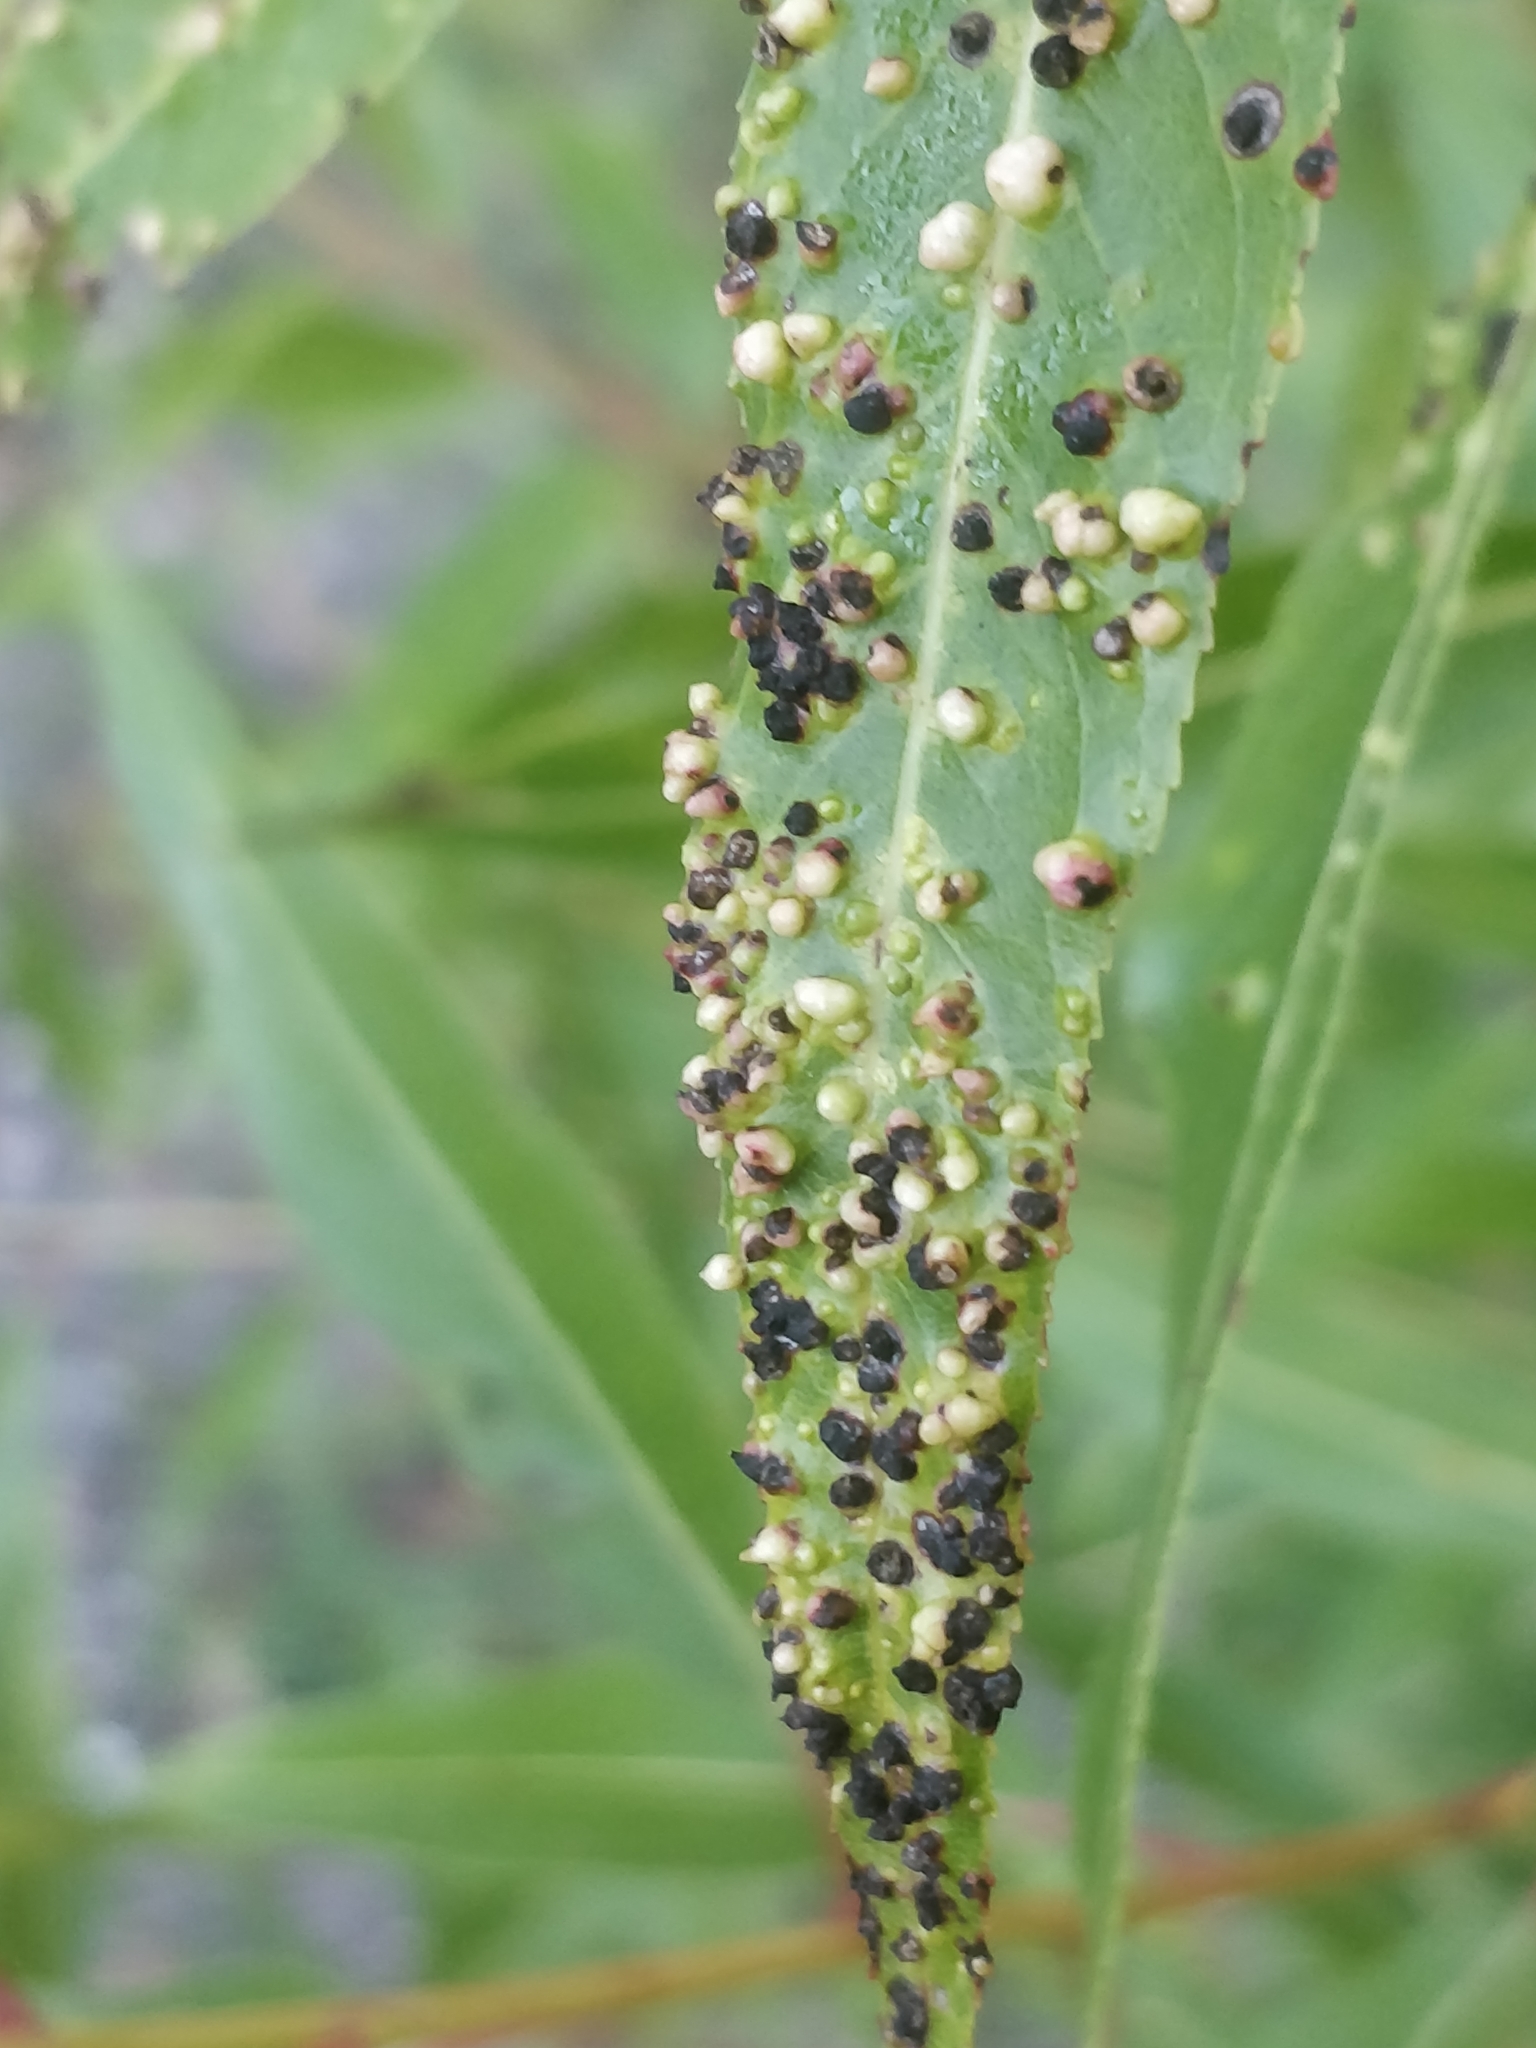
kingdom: Animalia
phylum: Arthropoda
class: Arachnida
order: Trombidiformes
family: Eriophyidae
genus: Aculus
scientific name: Aculus tetanothrix
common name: Willow bead gall mite
